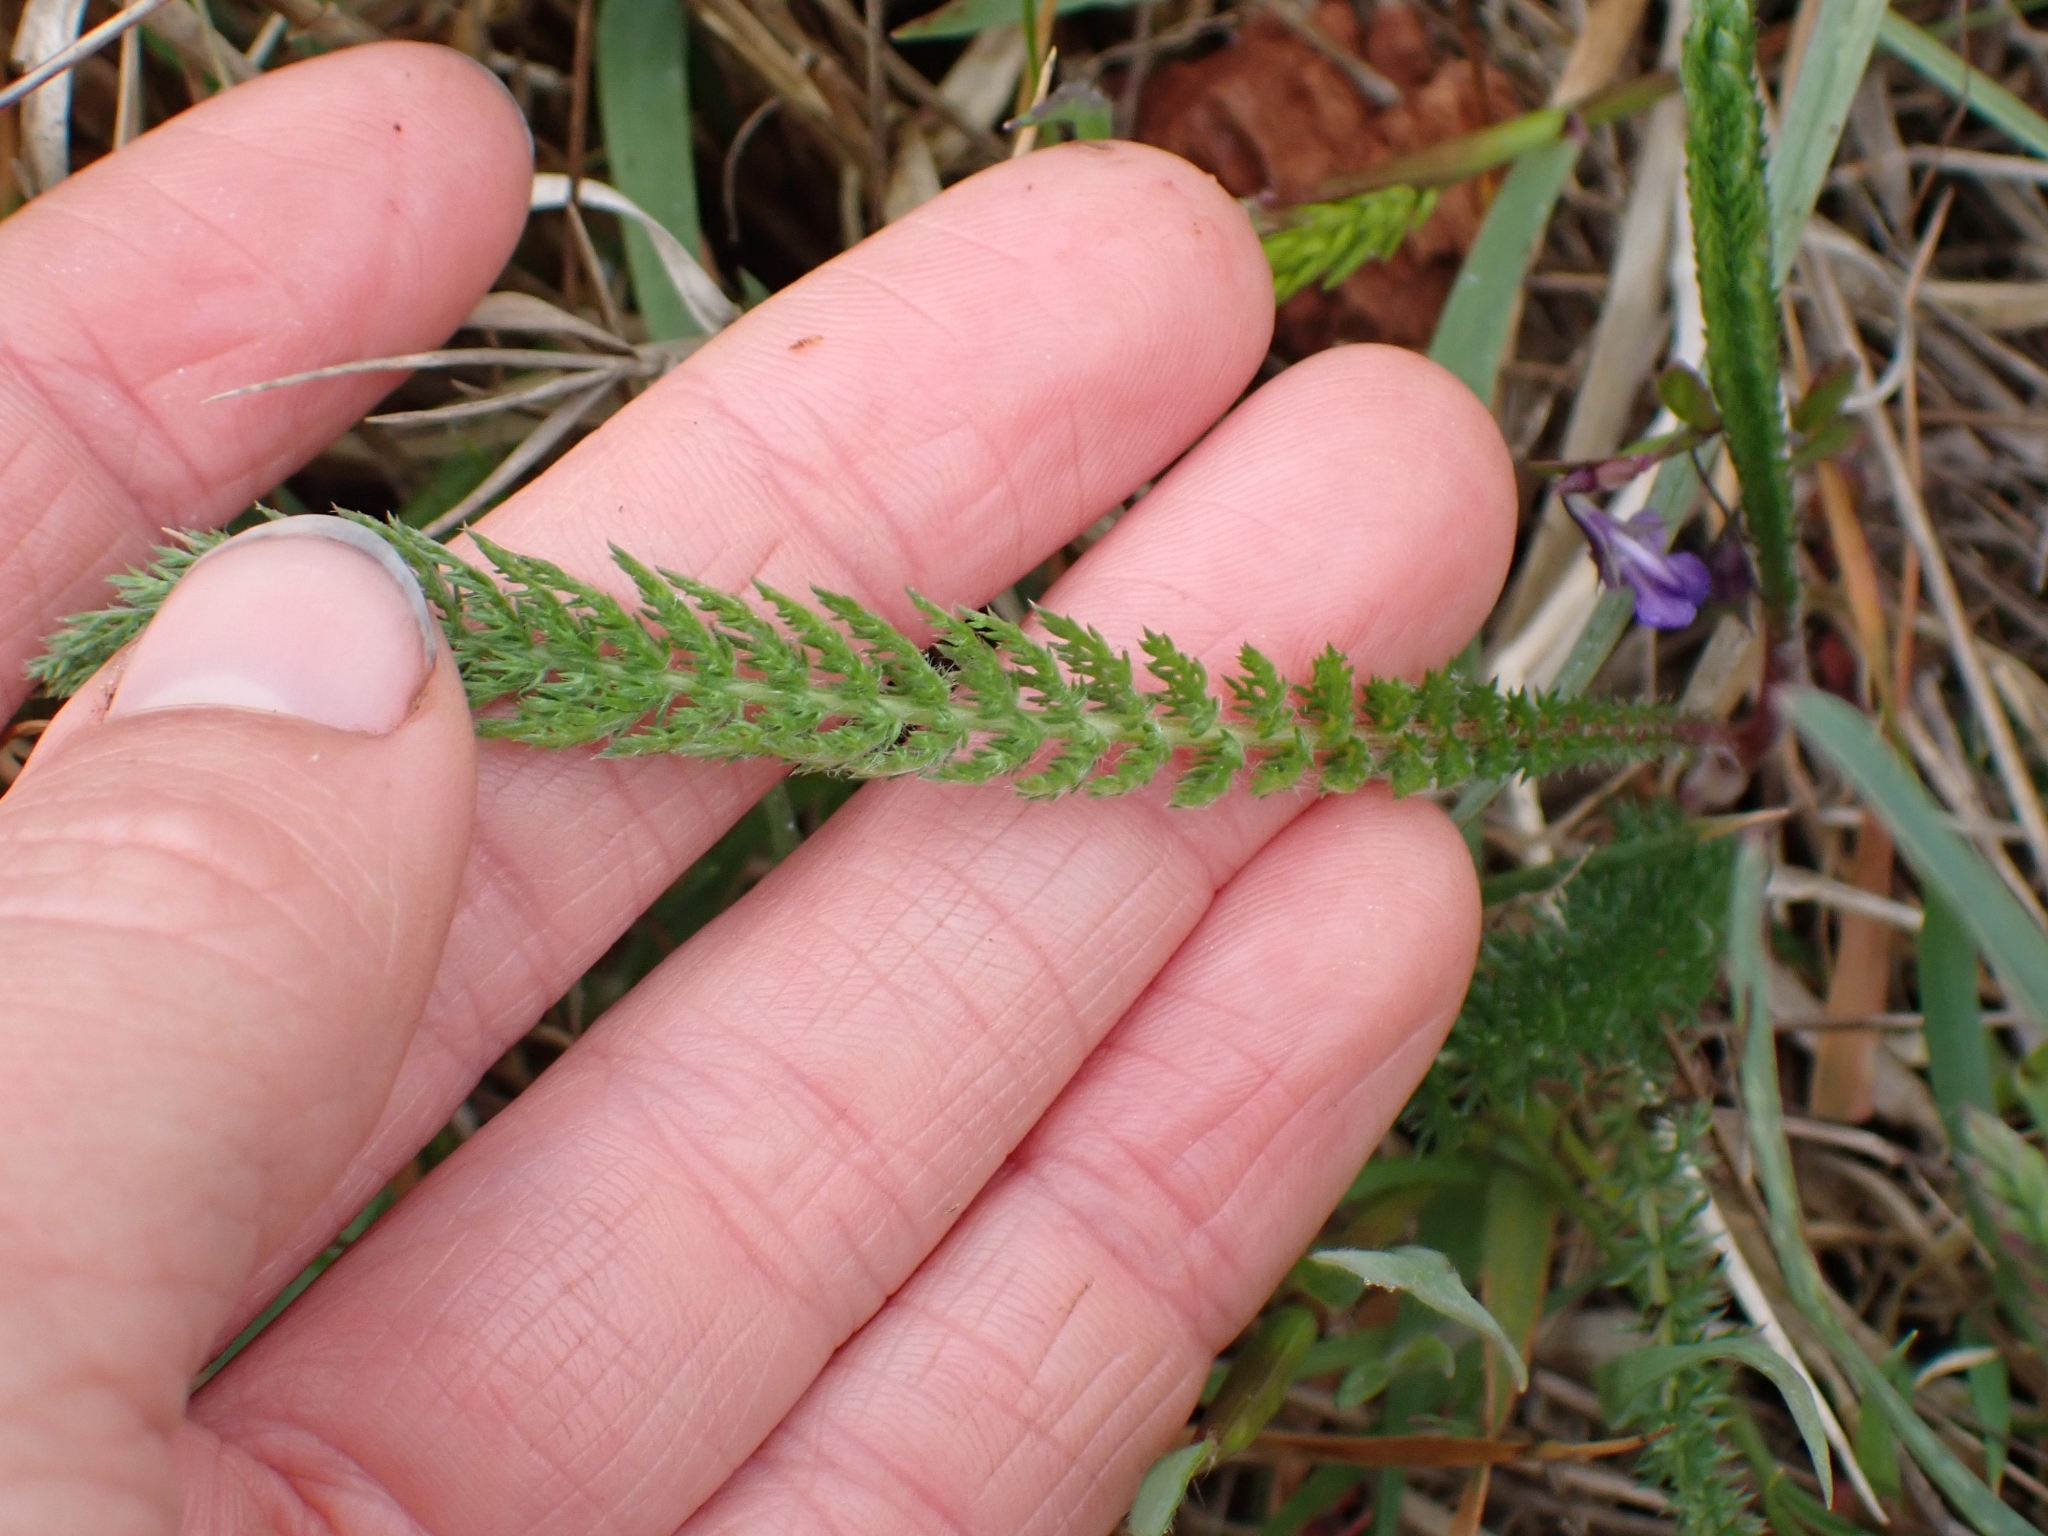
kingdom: Plantae
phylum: Tracheophyta
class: Magnoliopsida
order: Asterales
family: Asteraceae
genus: Achillea
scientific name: Achillea millefolium
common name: Yarrow
